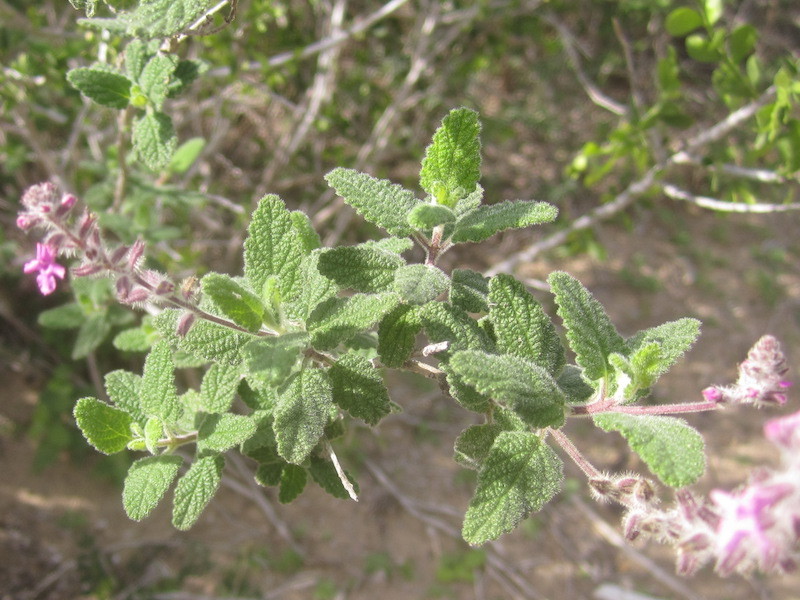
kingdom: Plantae
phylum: Tracheophyta
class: Magnoliopsida
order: Lamiales
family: Verbenaceae
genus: Aloysia
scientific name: Aloysia macrostachya
